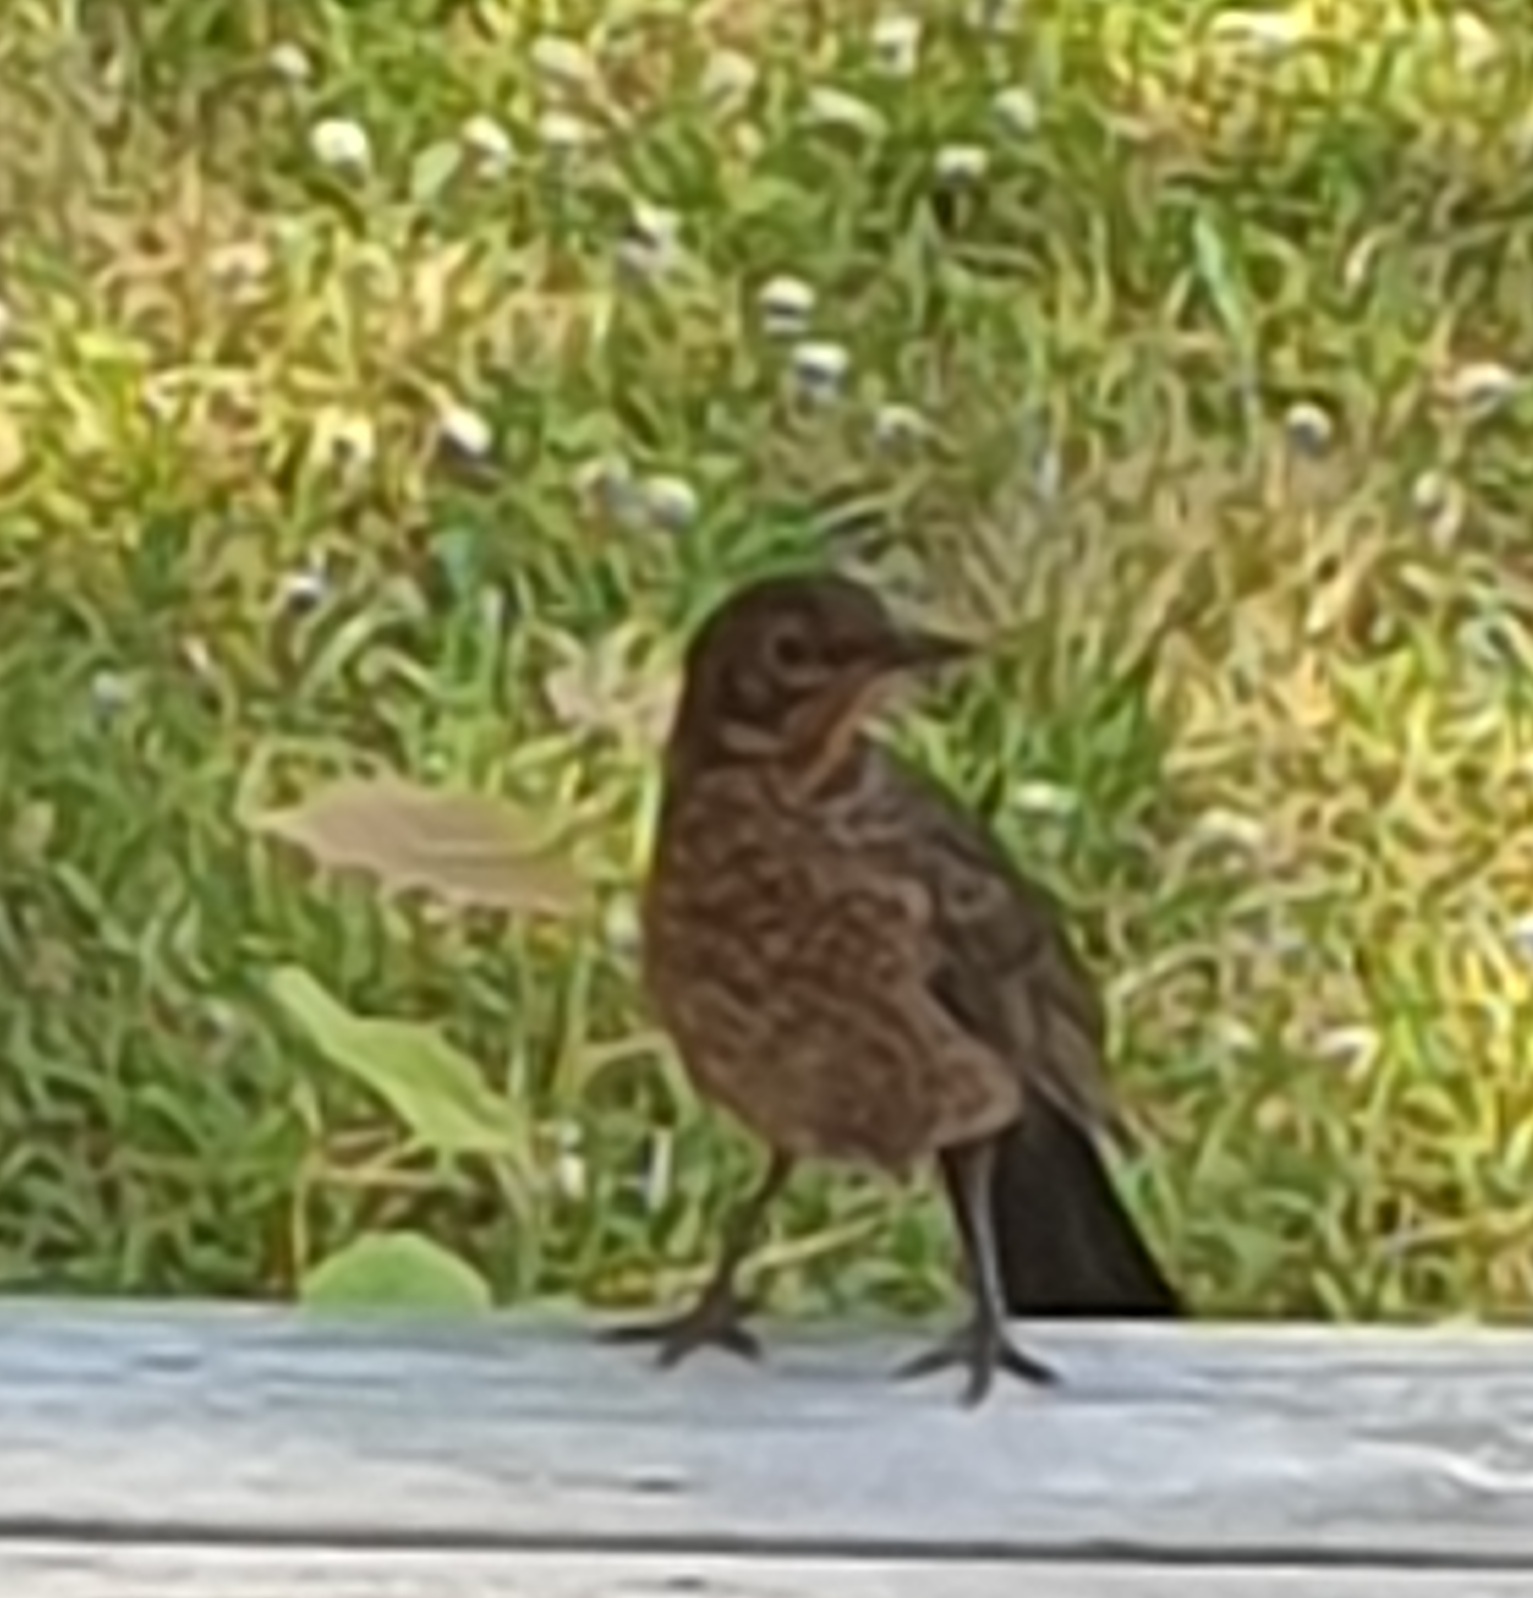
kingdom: Animalia
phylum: Chordata
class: Aves
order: Passeriformes
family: Turdidae
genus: Turdus
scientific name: Turdus merula
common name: Common blackbird
